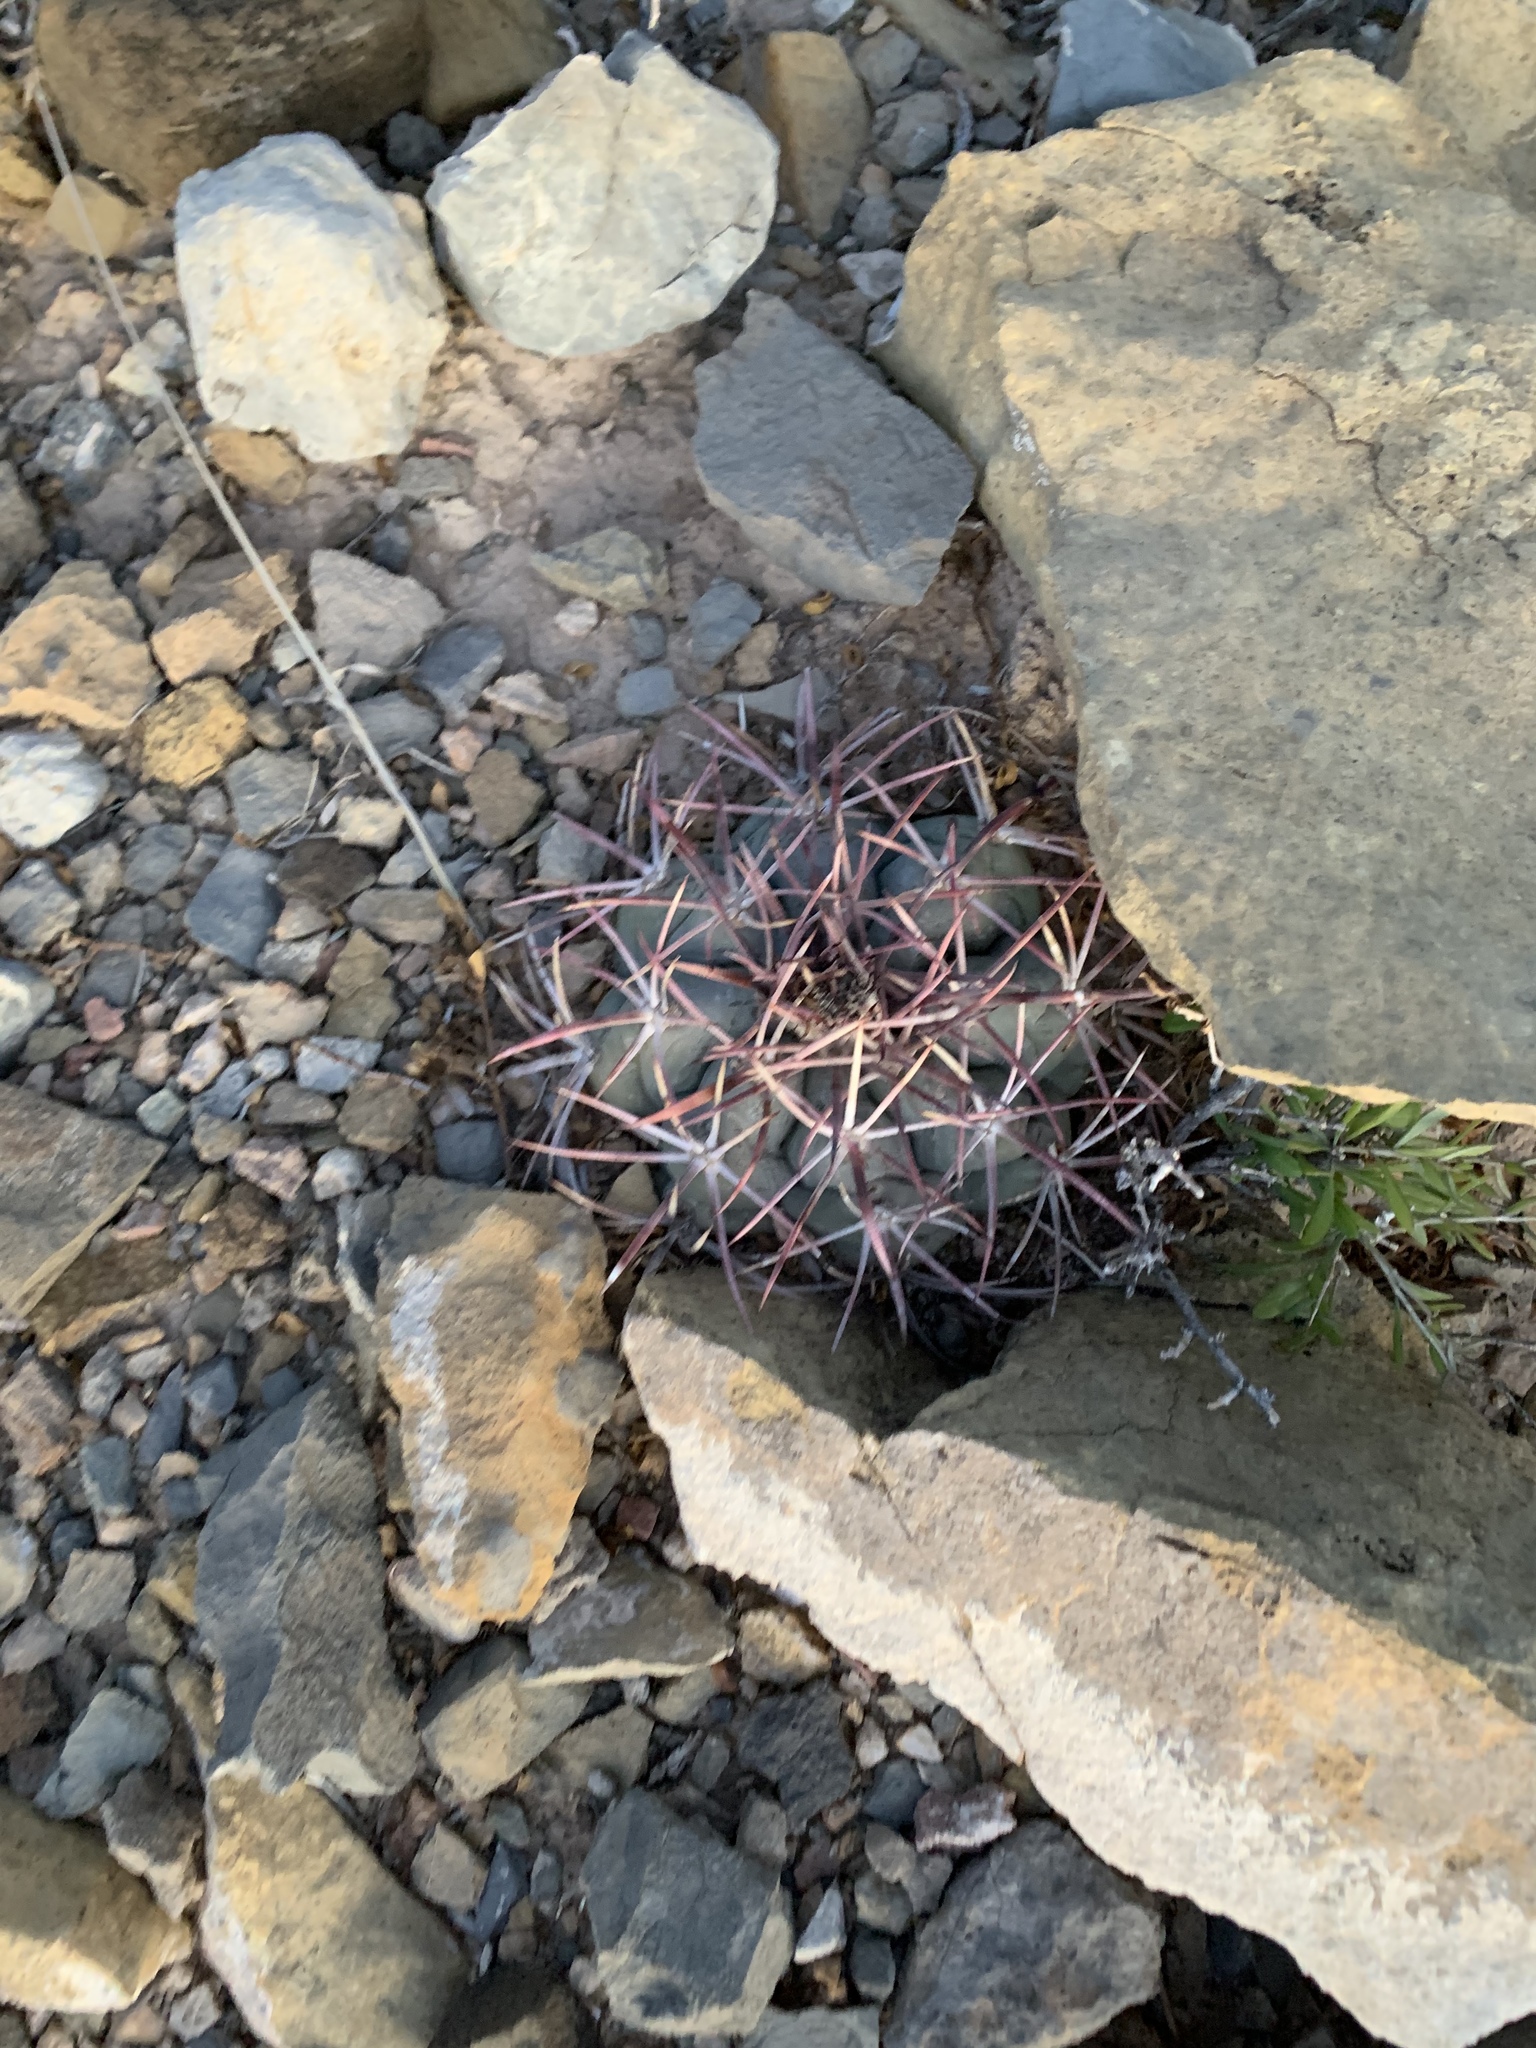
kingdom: Plantae
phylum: Tracheophyta
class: Magnoliopsida
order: Caryophyllales
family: Cactaceae
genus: Echinocactus
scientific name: Echinocactus horizonthalonius
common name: Devilshead
